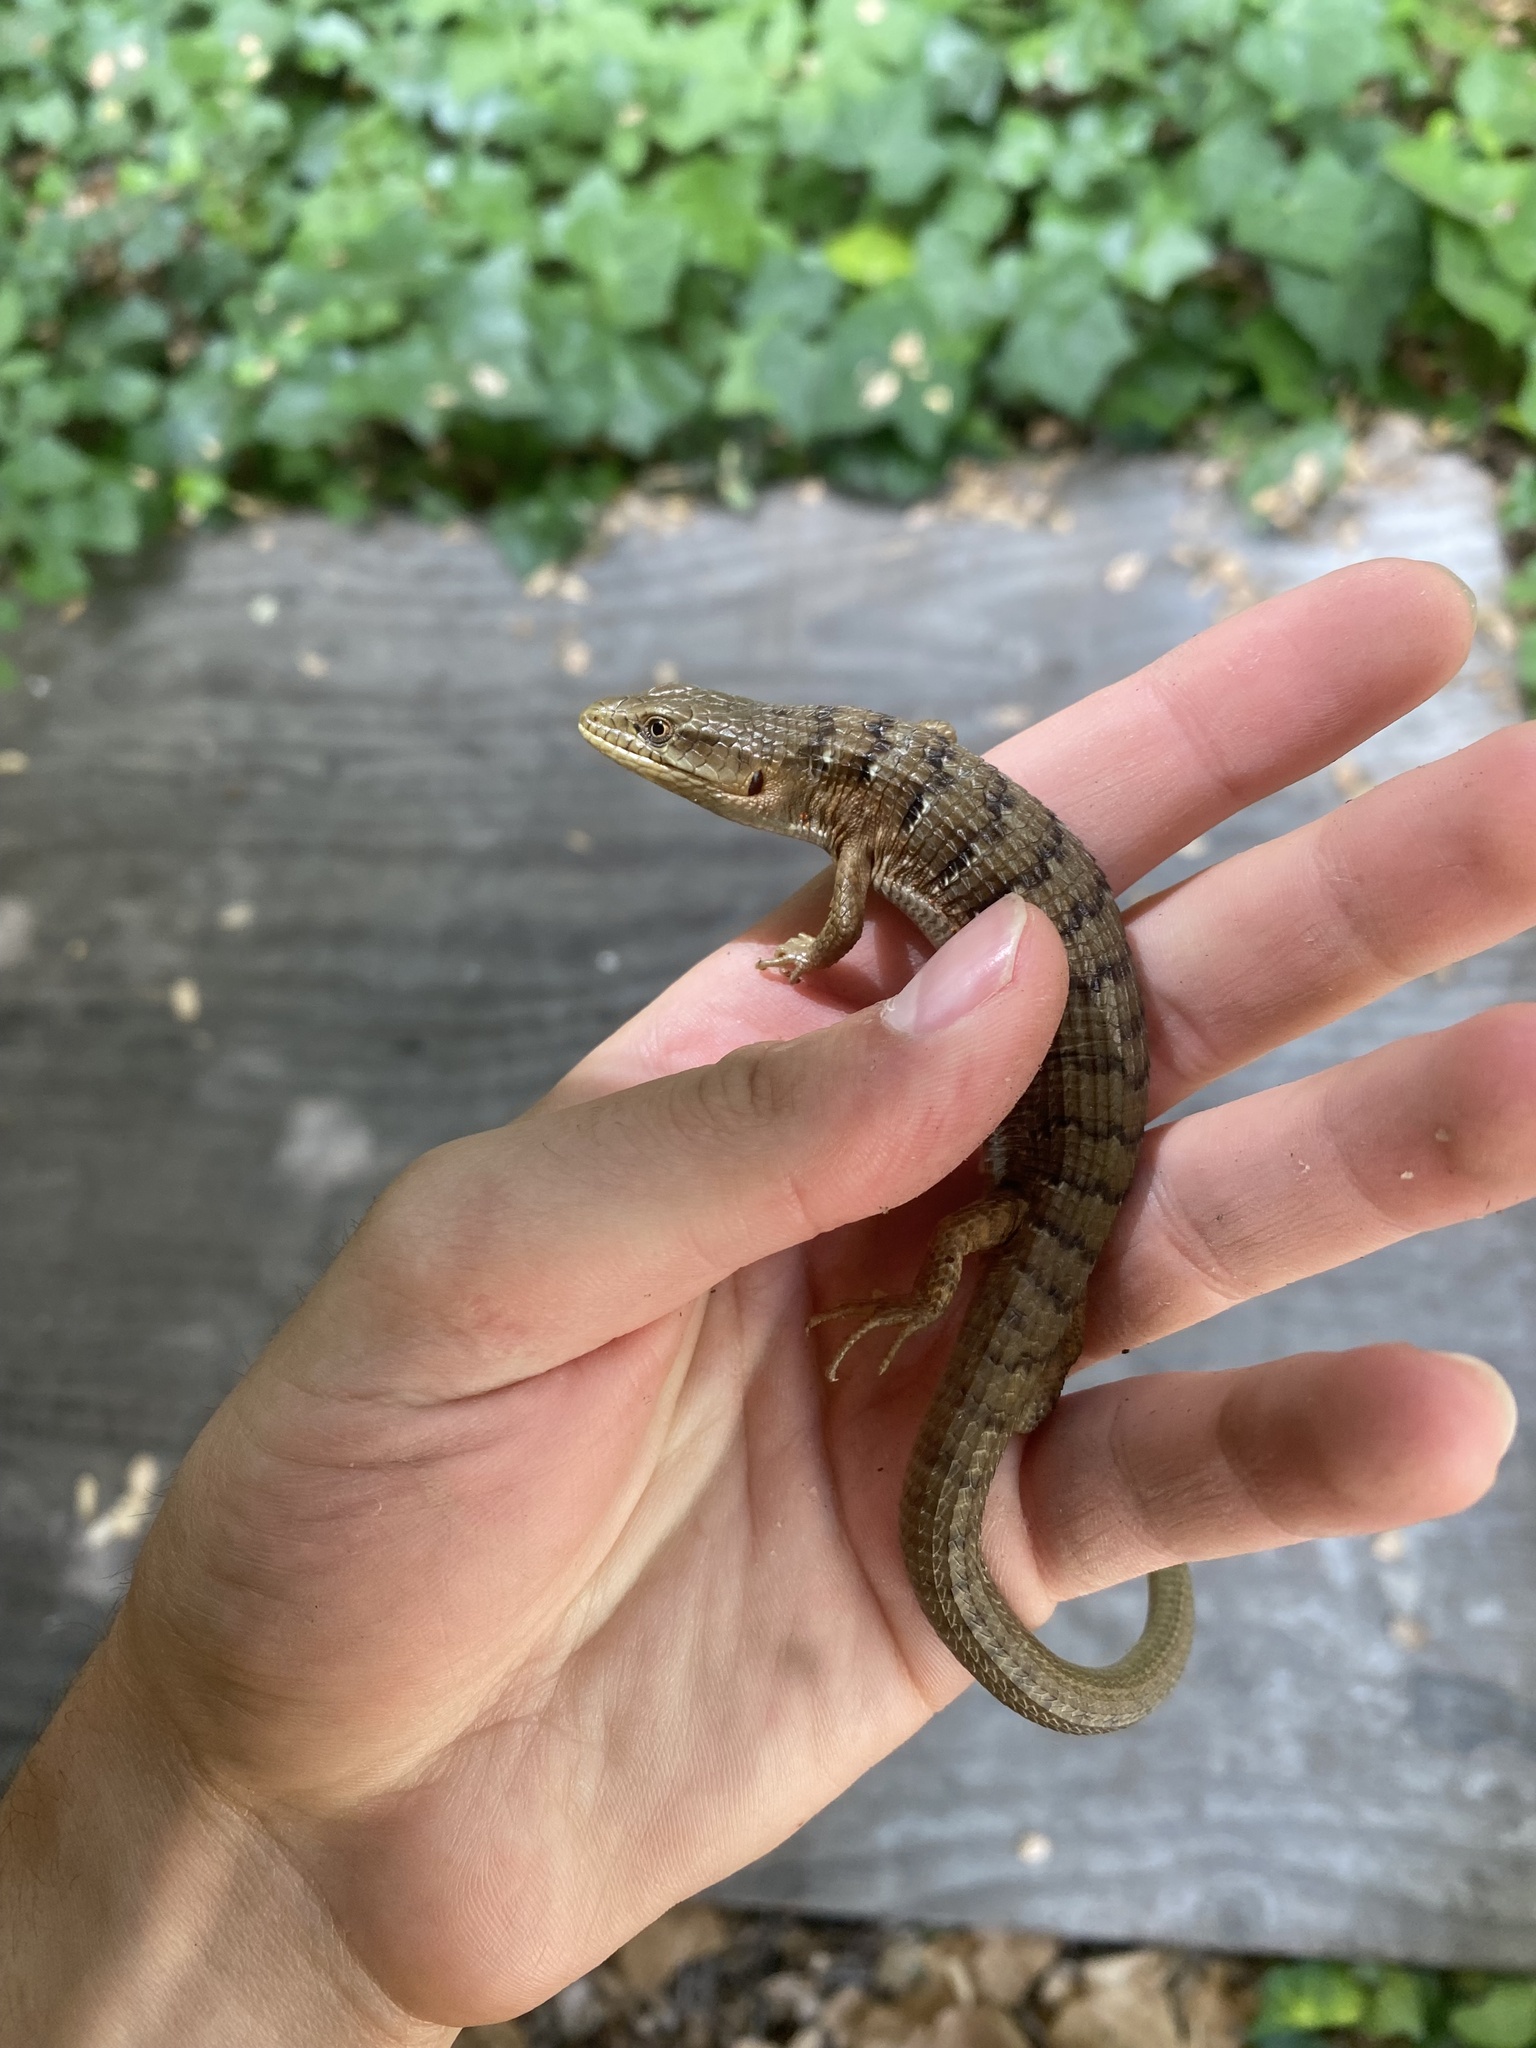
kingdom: Animalia
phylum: Chordata
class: Squamata
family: Anguidae
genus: Elgaria
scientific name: Elgaria multicarinata
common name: Southern alligator lizard
